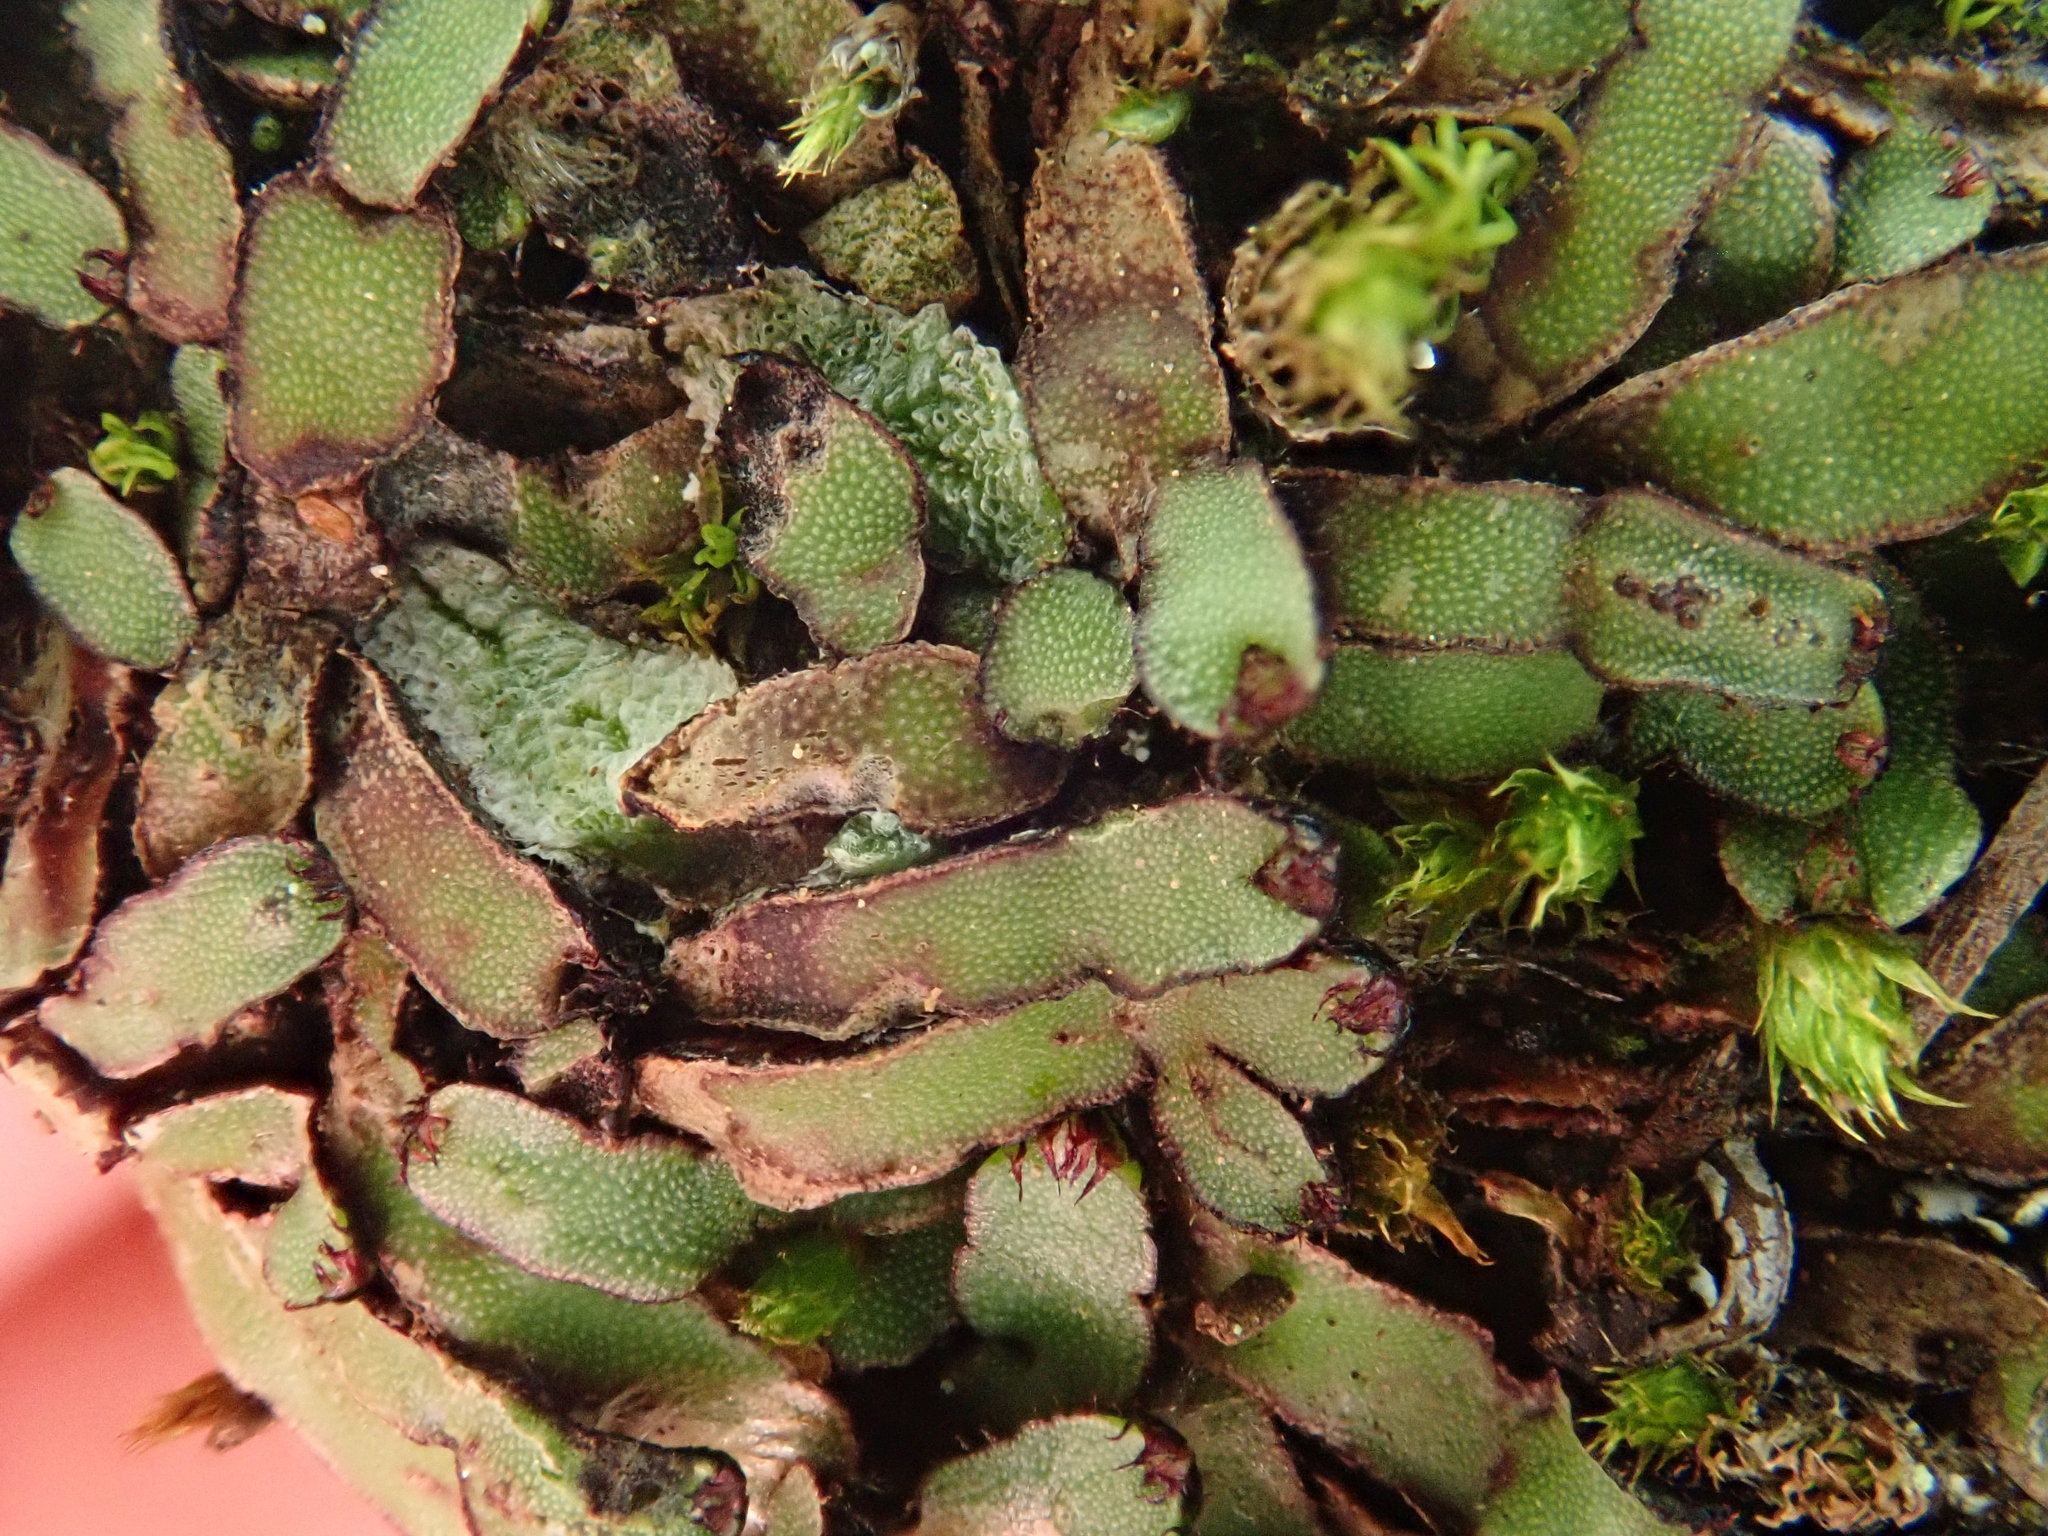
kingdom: Plantae
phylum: Marchantiophyta
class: Marchantiopsida
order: Marchantiales
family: Aytoniaceae
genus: Mannia
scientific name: Mannia androgyna
